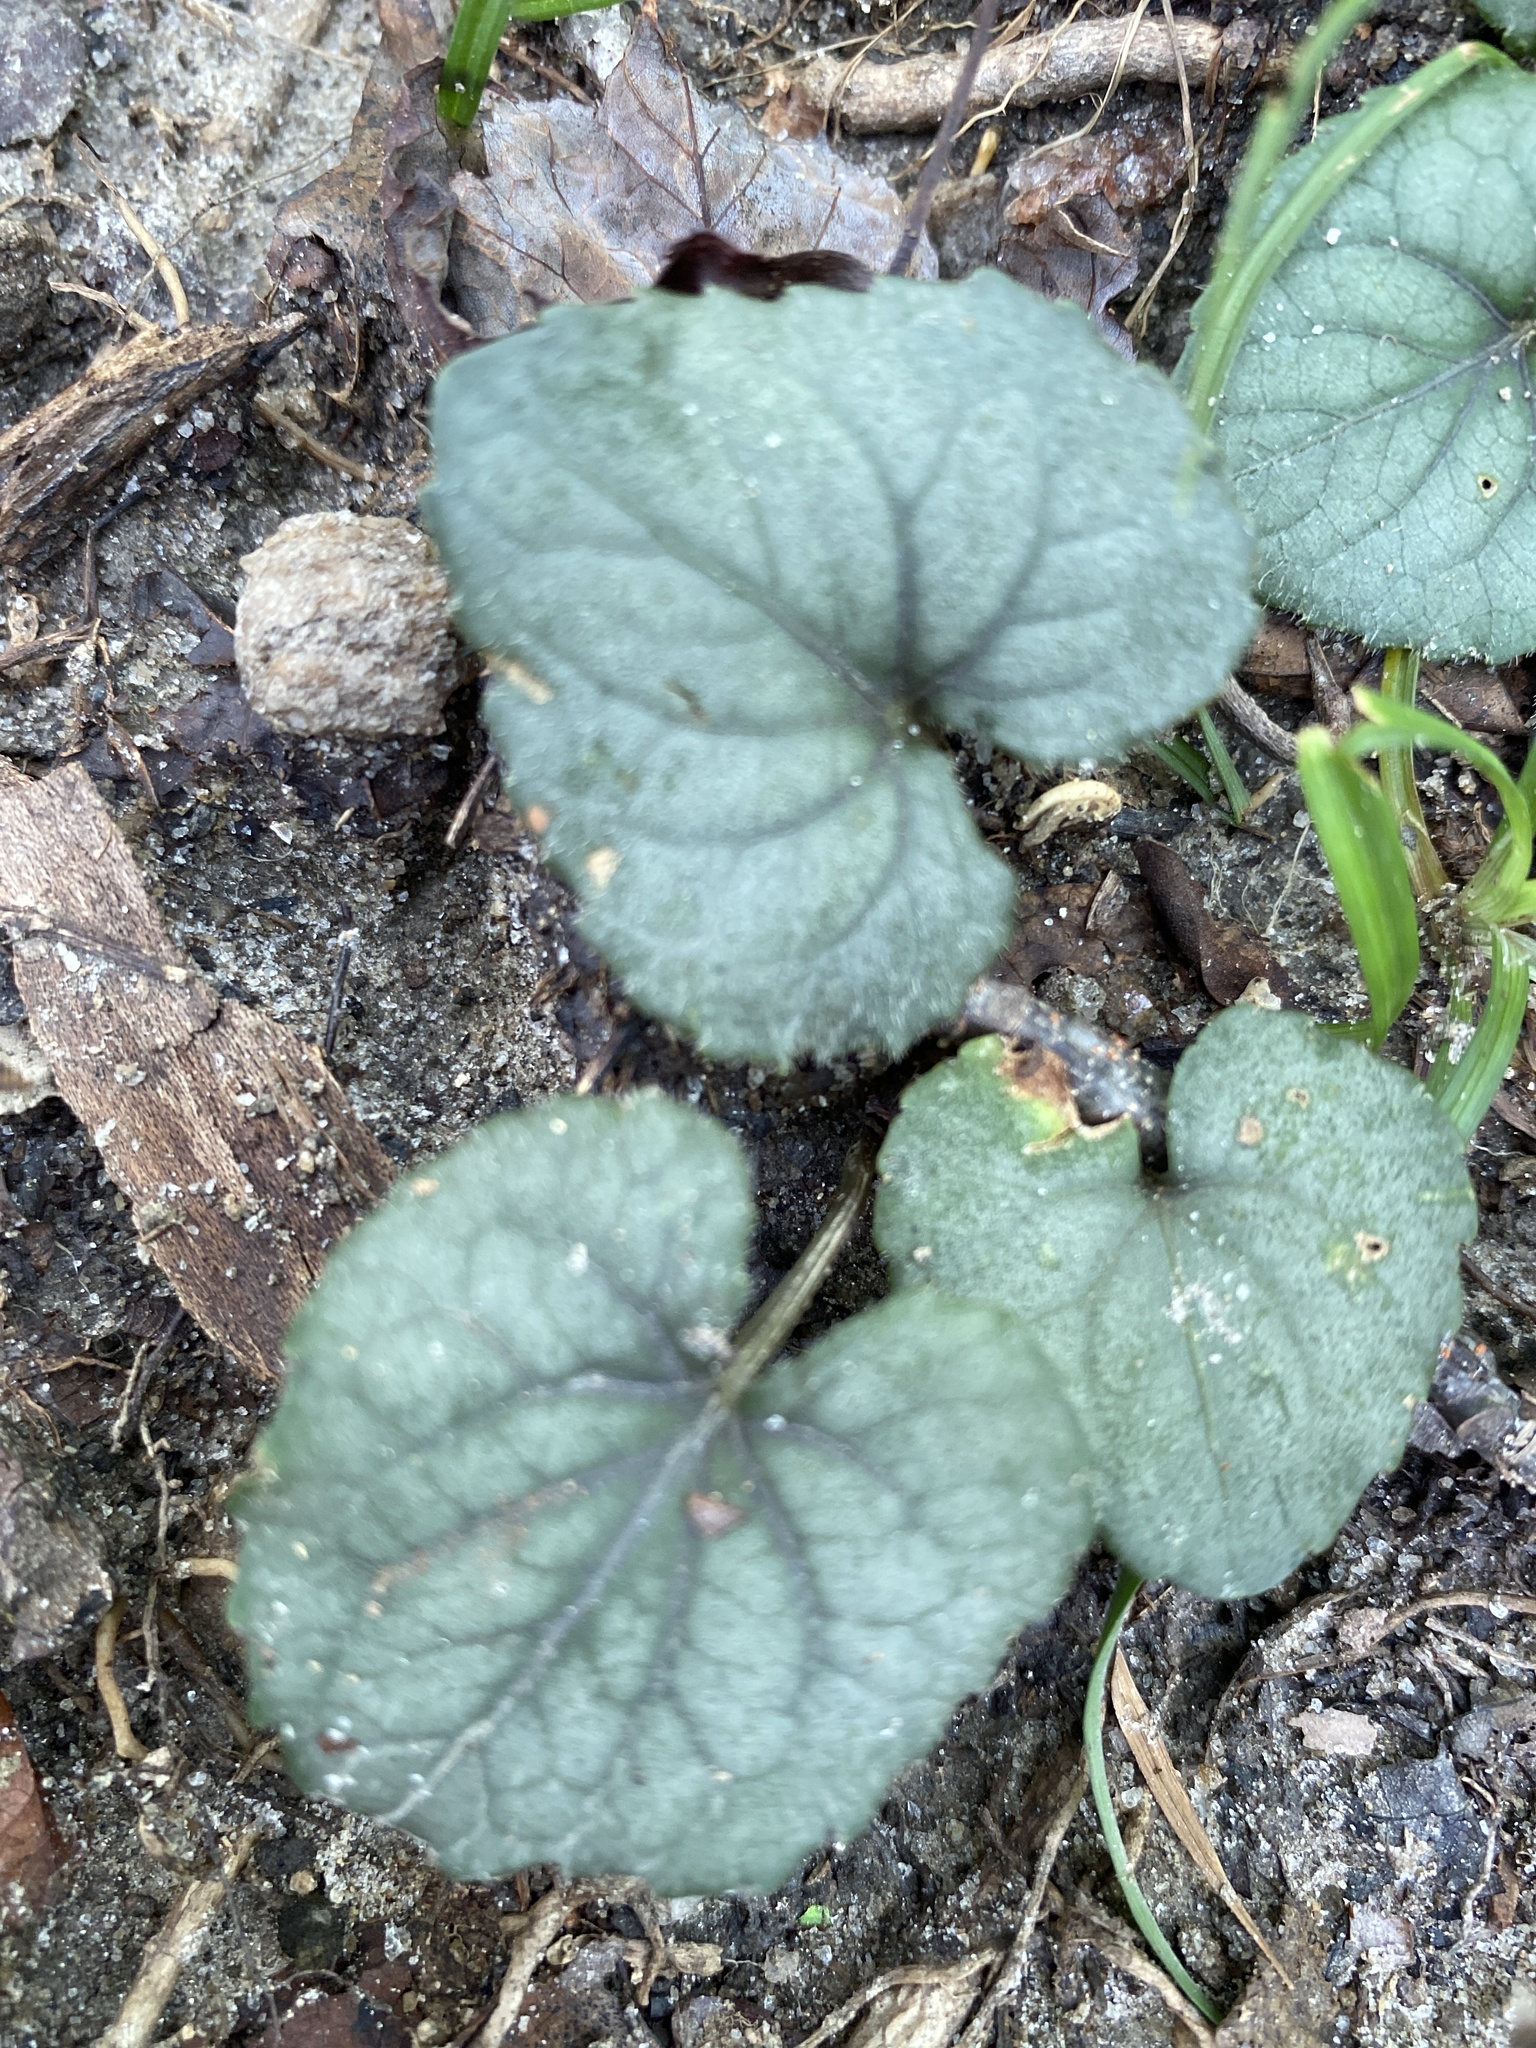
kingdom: Plantae
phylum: Tracheophyta
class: Magnoliopsida
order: Malpighiales
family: Violaceae
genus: Viola
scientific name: Viola hirsutula
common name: Southern wood violet
